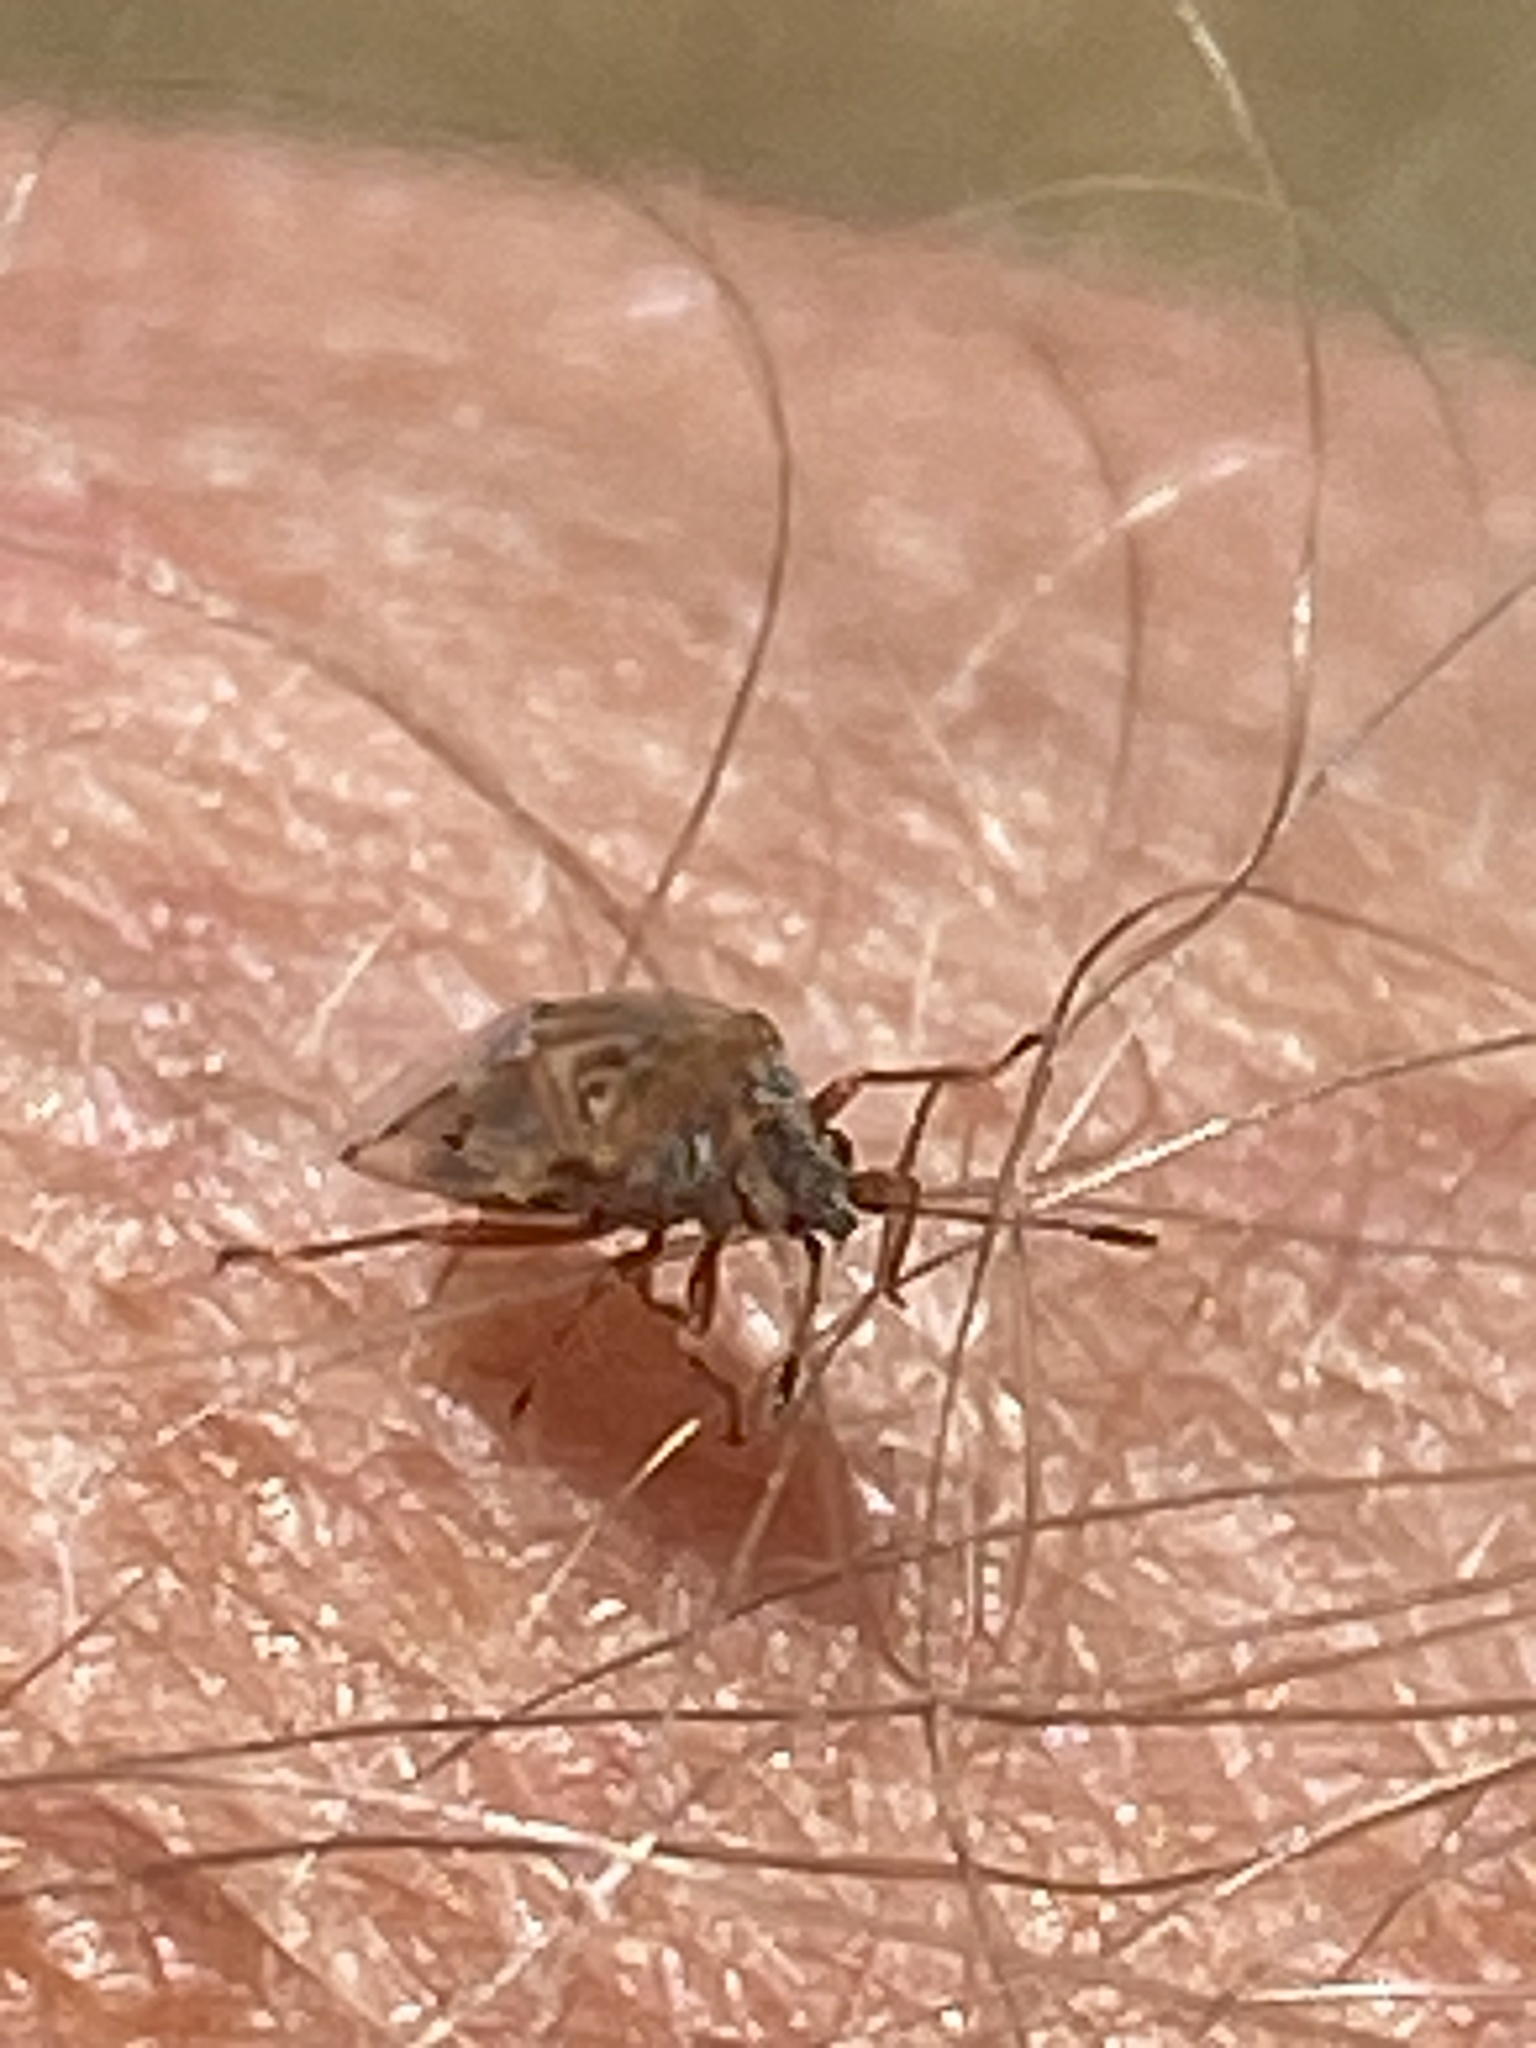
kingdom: Animalia
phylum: Arthropoda
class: Insecta
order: Hemiptera
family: Lygaeidae
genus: Kleidocerys
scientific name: Kleidocerys resedae
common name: Birch catkin bug
